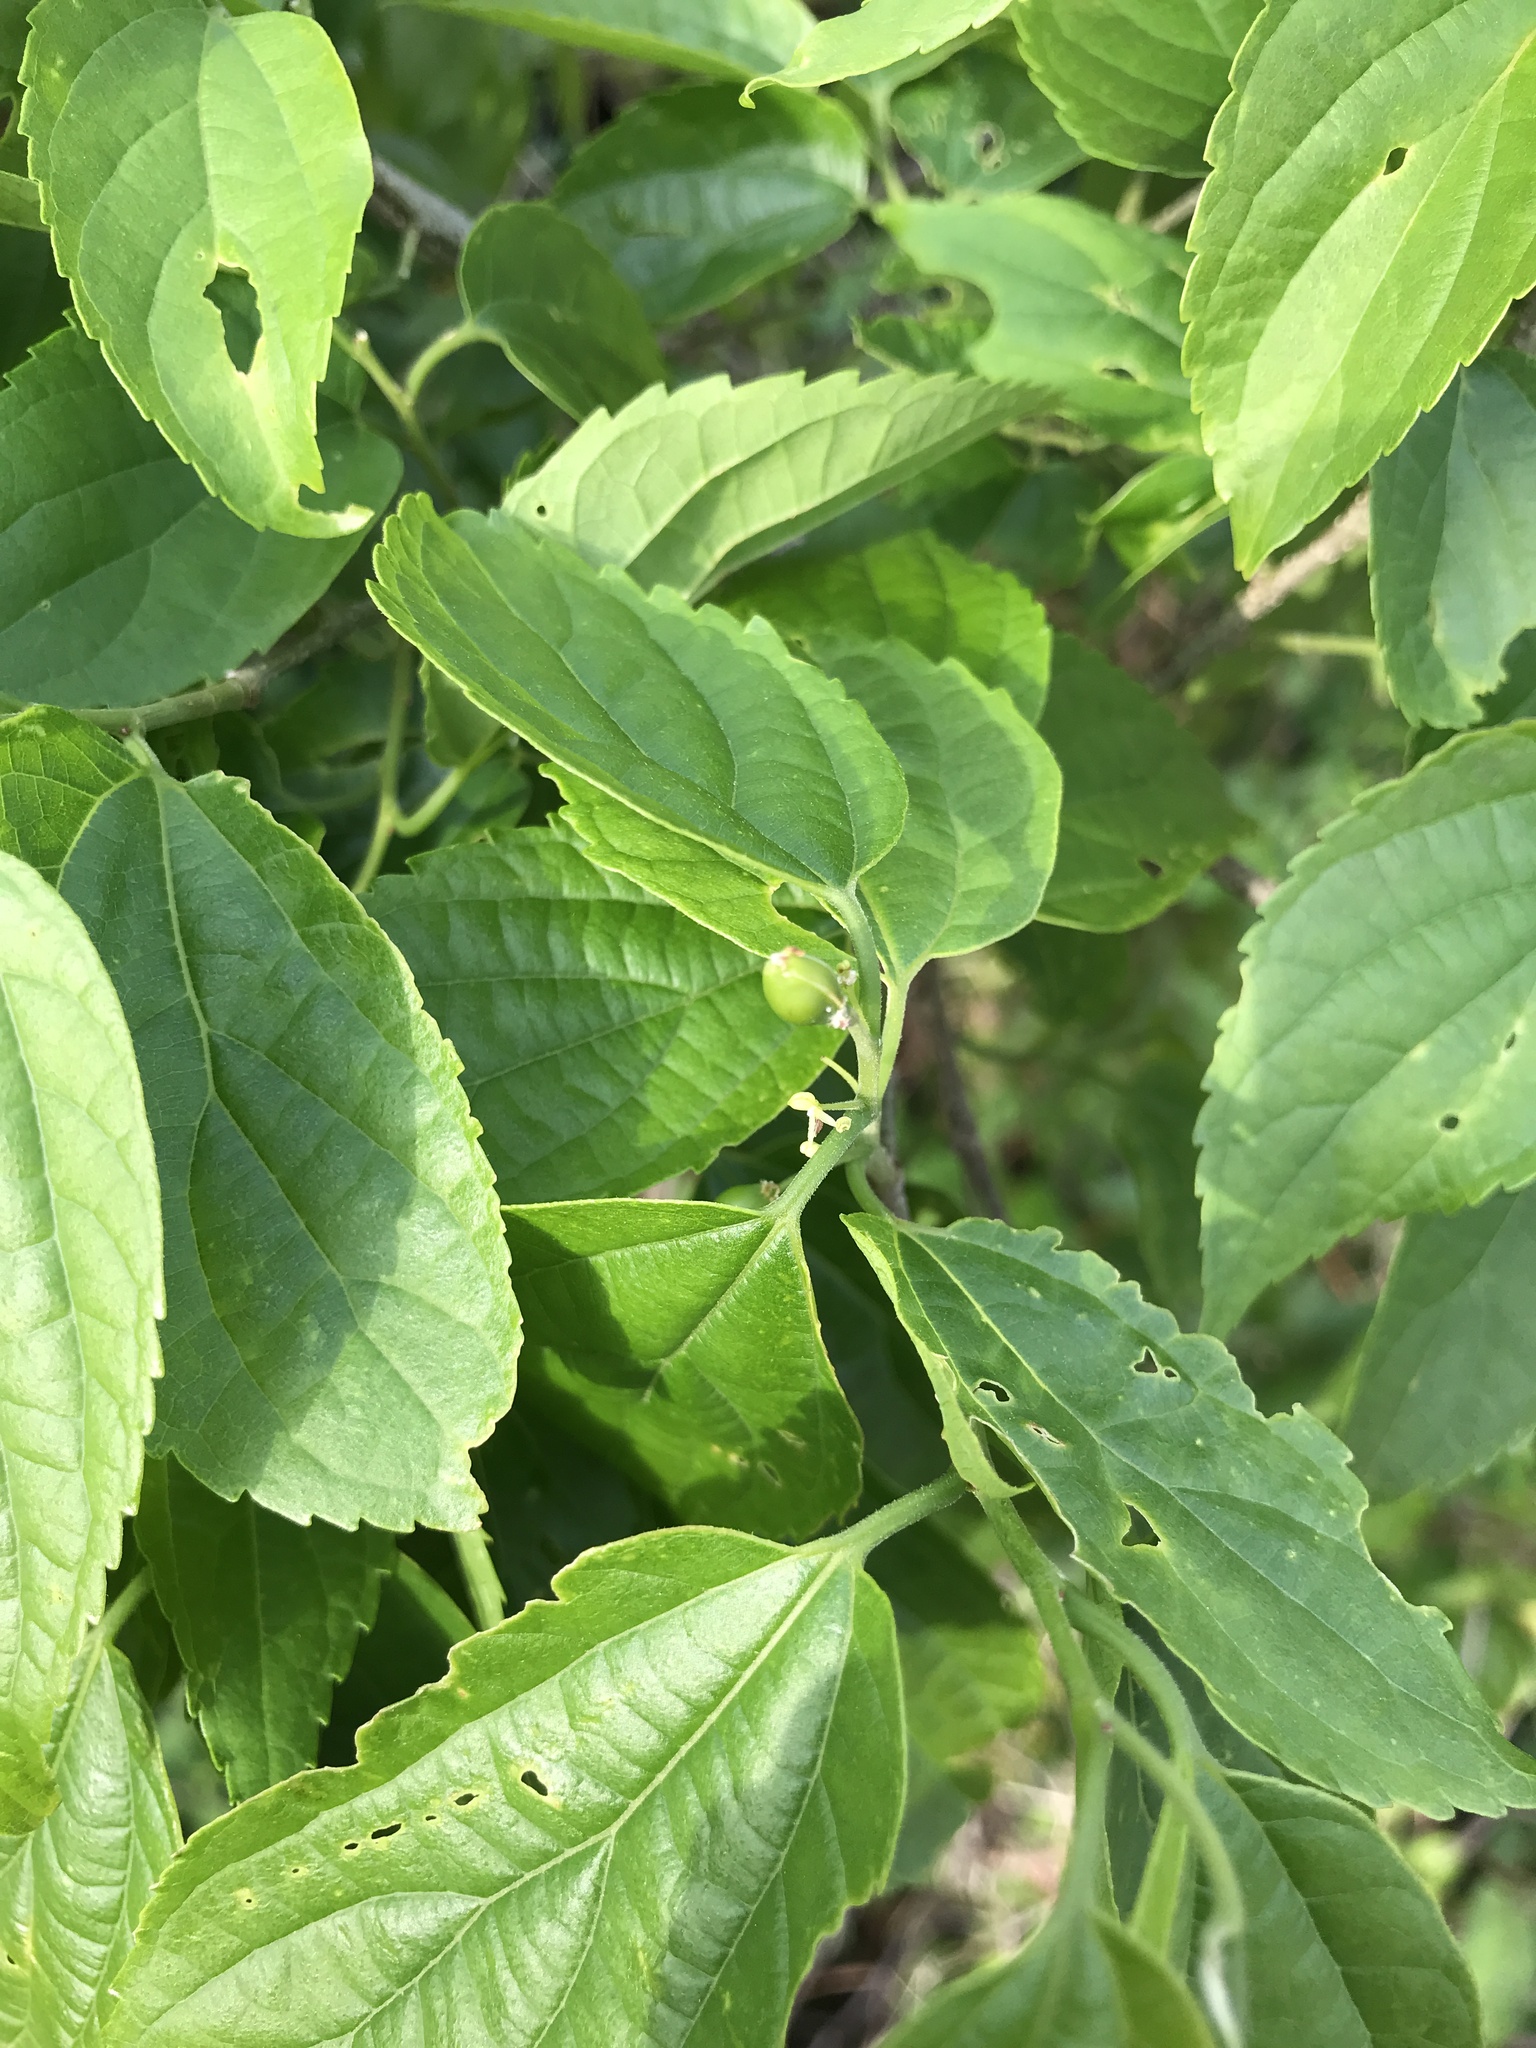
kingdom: Plantae
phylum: Tracheophyta
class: Magnoliopsida
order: Rosales
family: Cannabaceae
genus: Celtis
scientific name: Celtis boninensis
